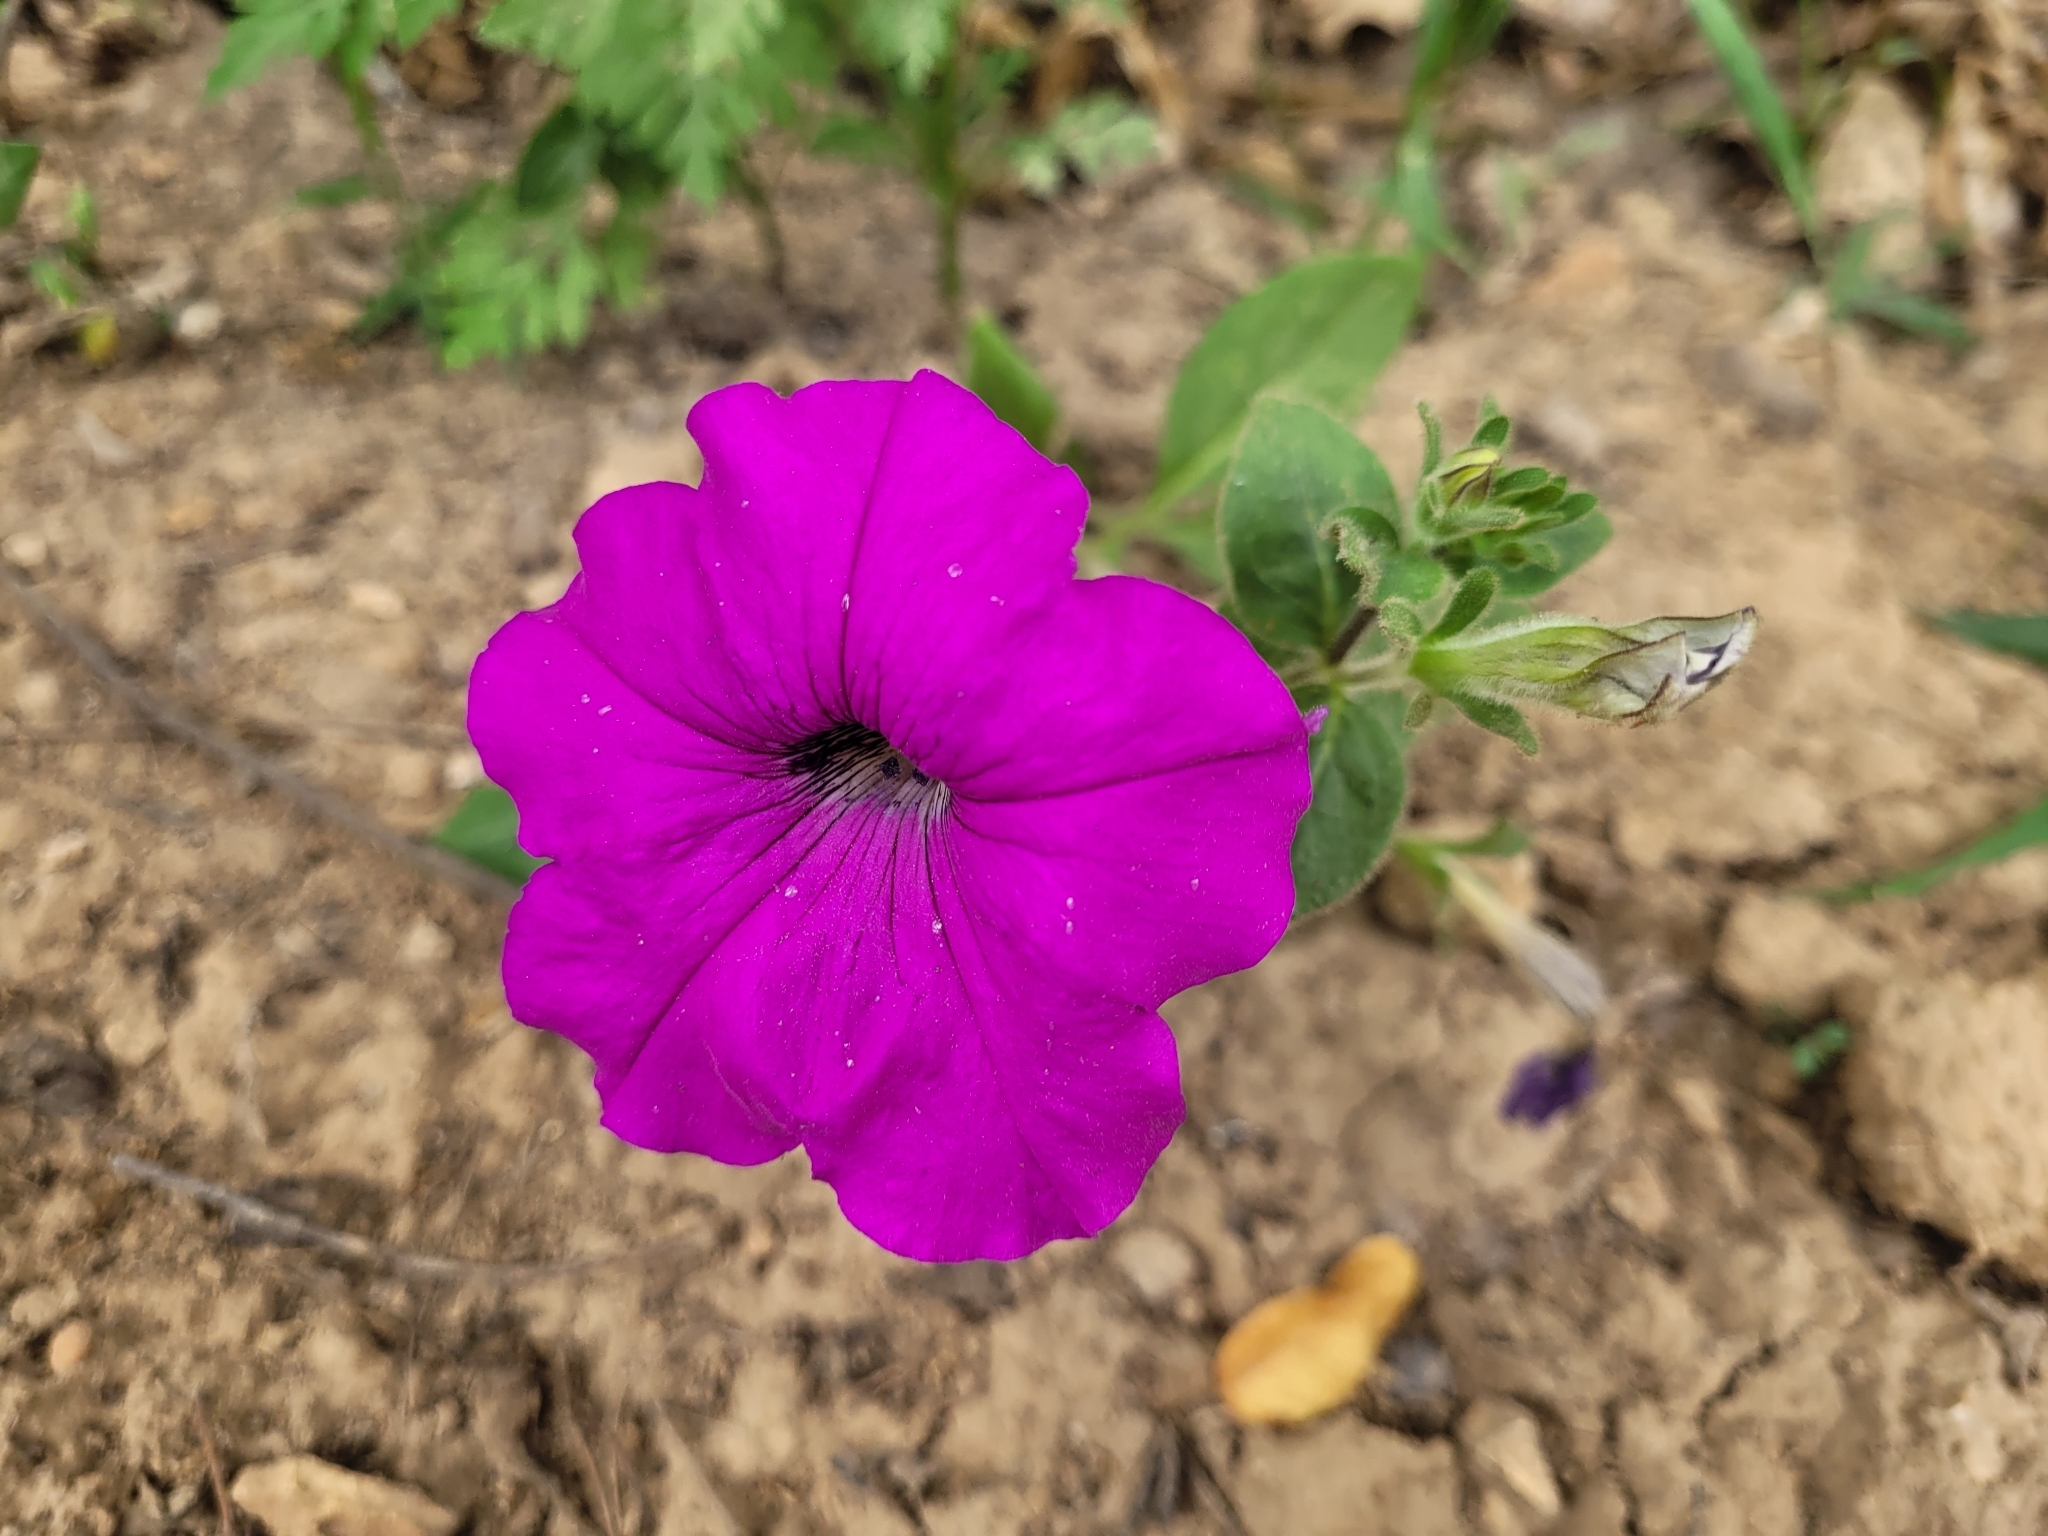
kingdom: Plantae
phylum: Tracheophyta
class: Magnoliopsida
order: Solanales
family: Solanaceae
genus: Petunia
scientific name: Petunia atkinsiana
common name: Petunia
